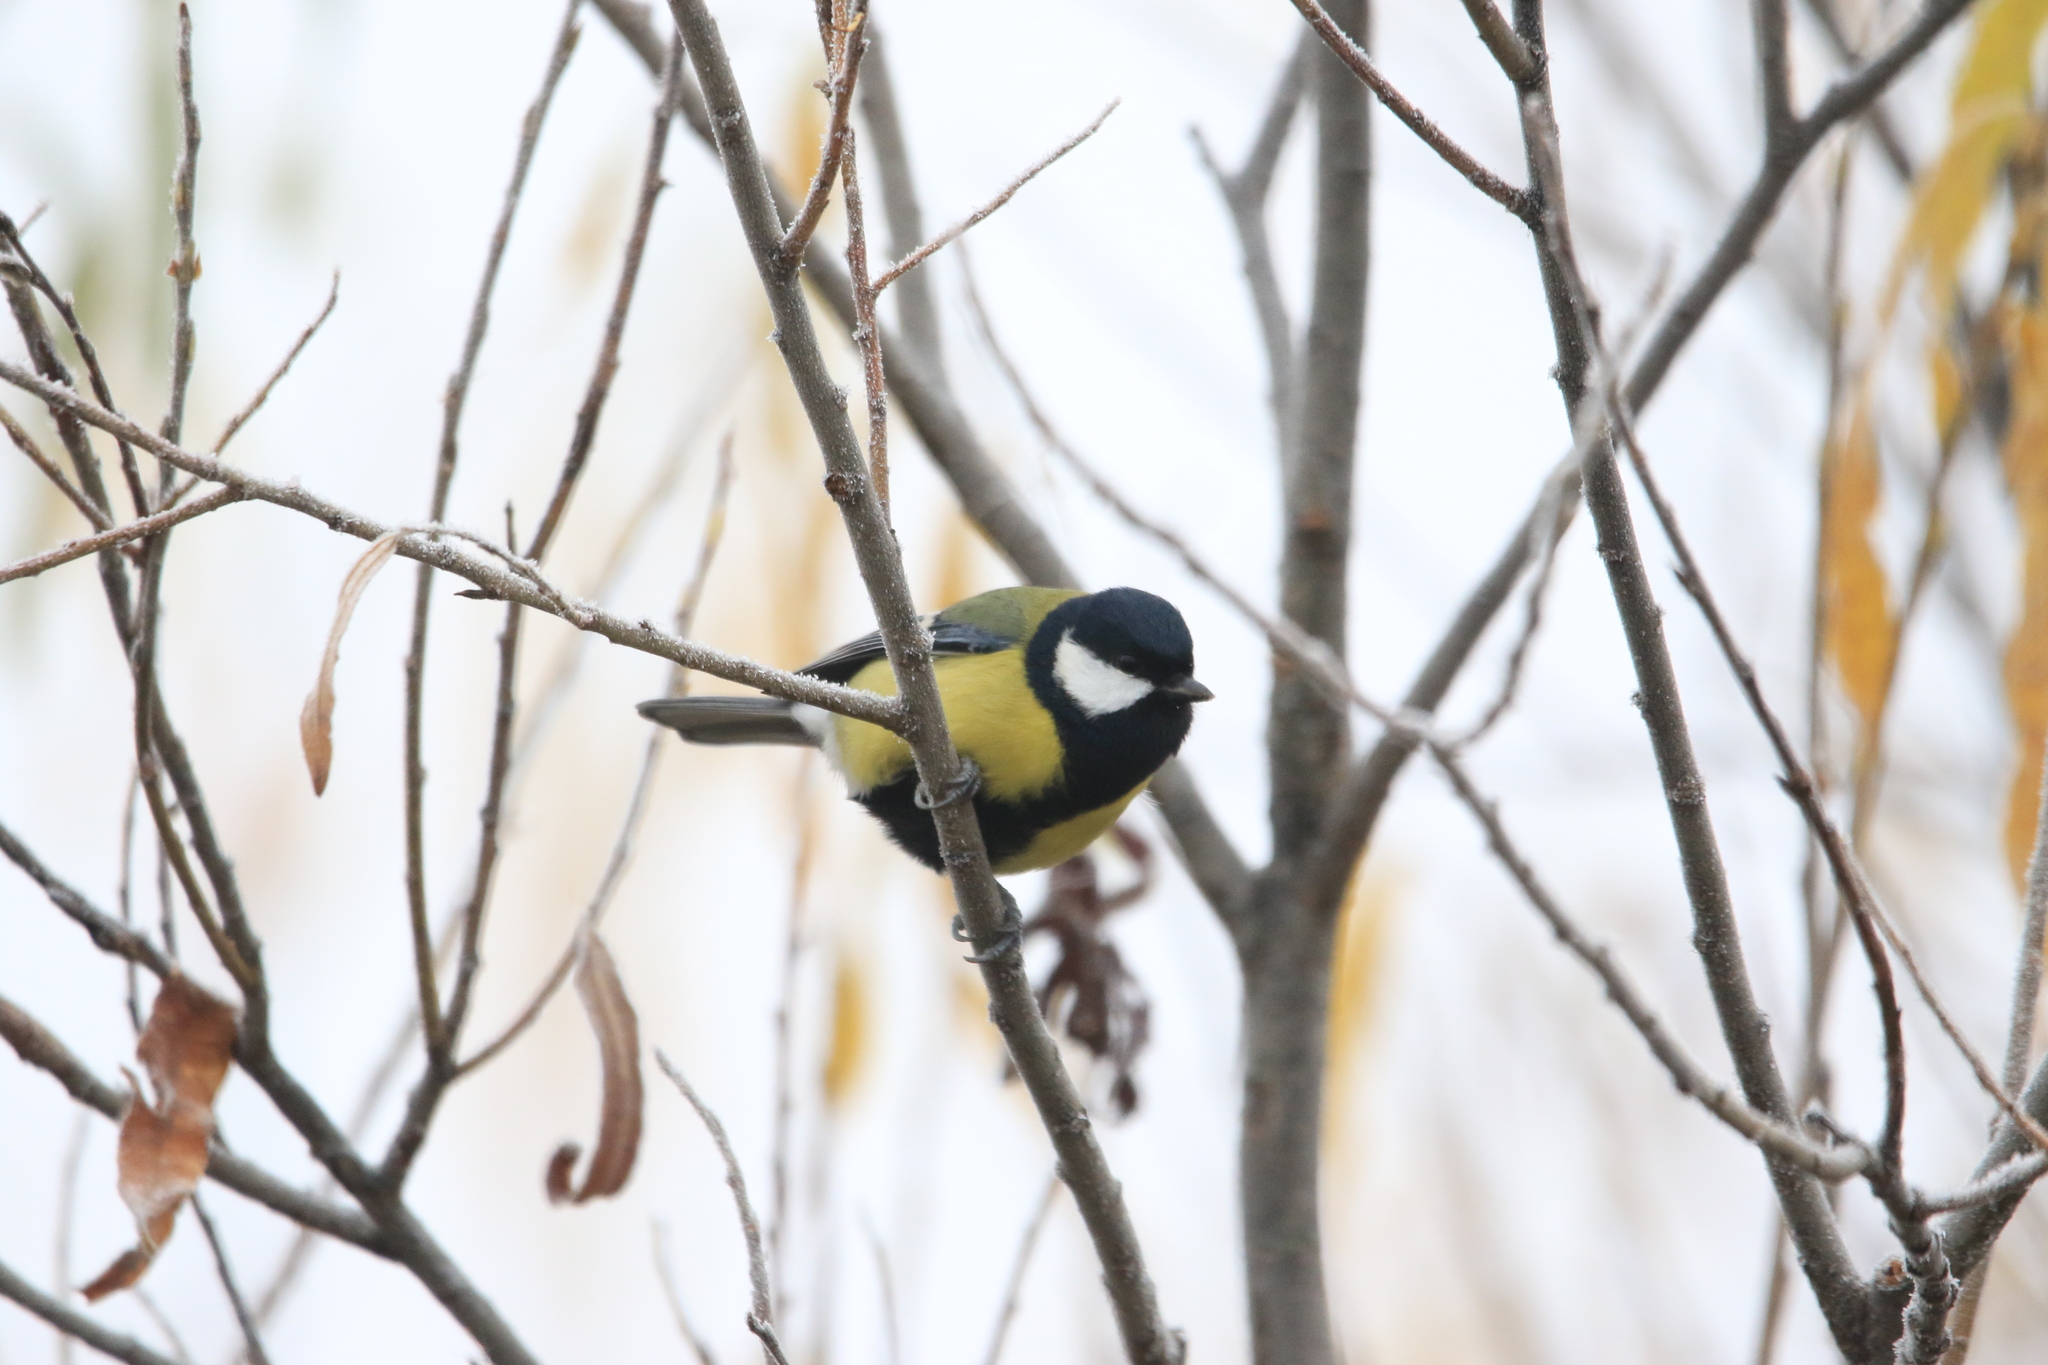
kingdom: Animalia
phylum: Chordata
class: Aves
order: Passeriformes
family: Paridae
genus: Parus
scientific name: Parus major
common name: Great tit
